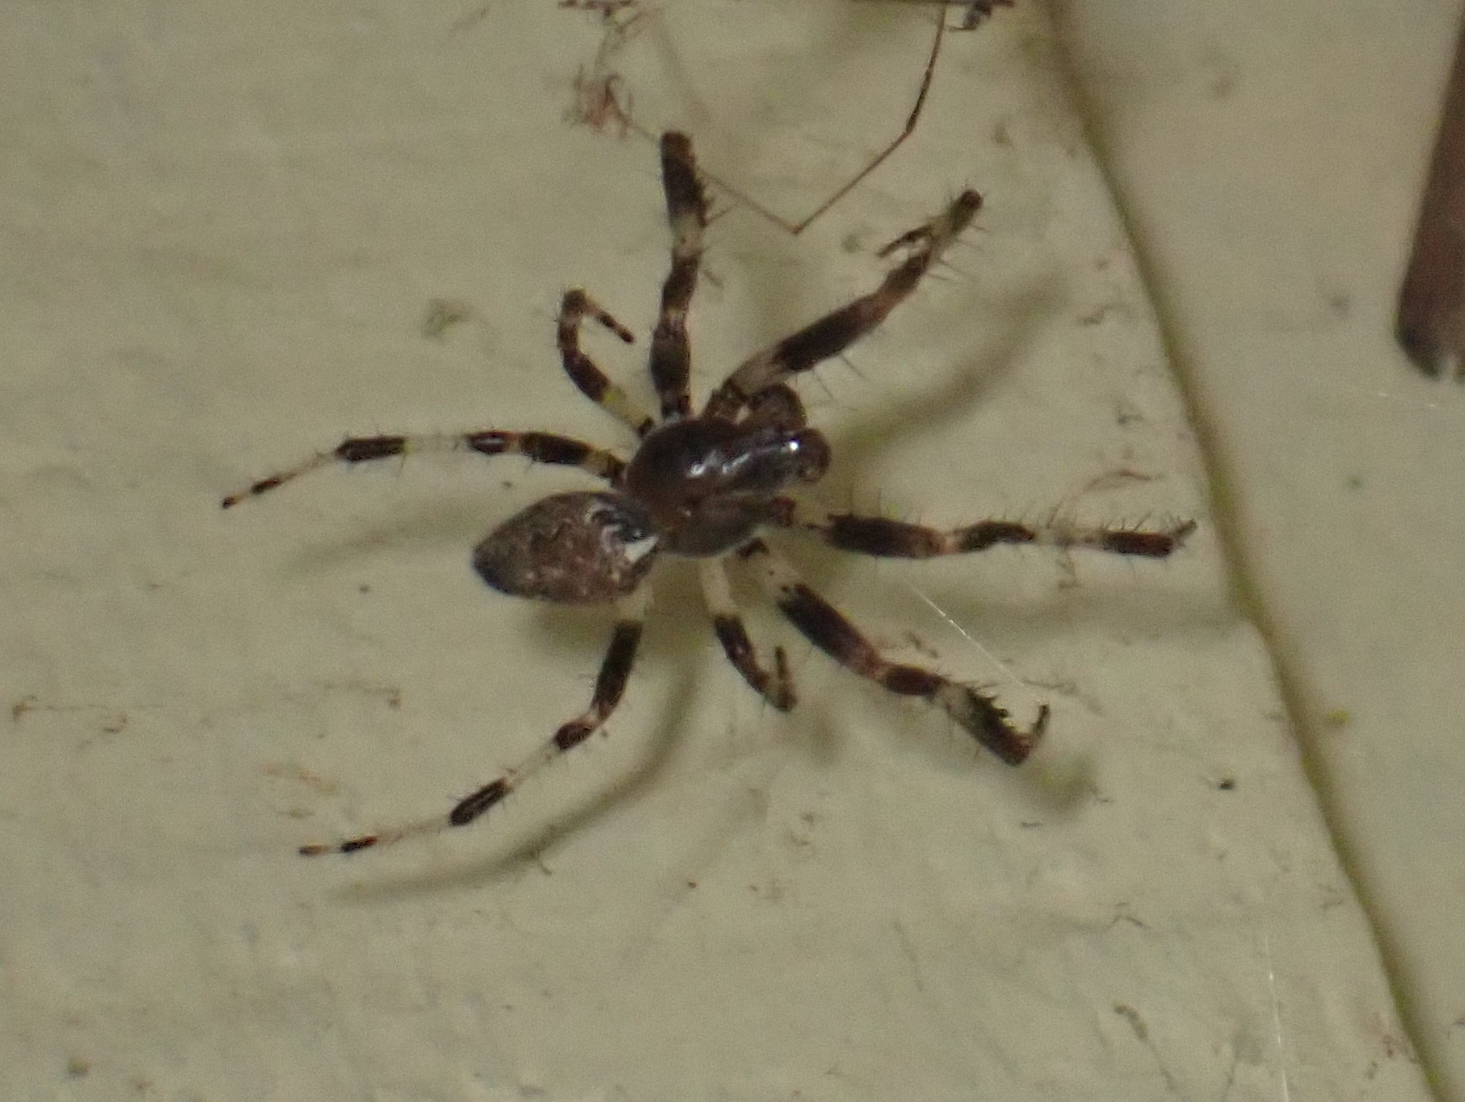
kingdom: Animalia
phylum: Arthropoda
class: Arachnida
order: Araneae
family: Araneidae
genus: Araneus
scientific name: Araneus marmoreus
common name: Marbled orbweaver
